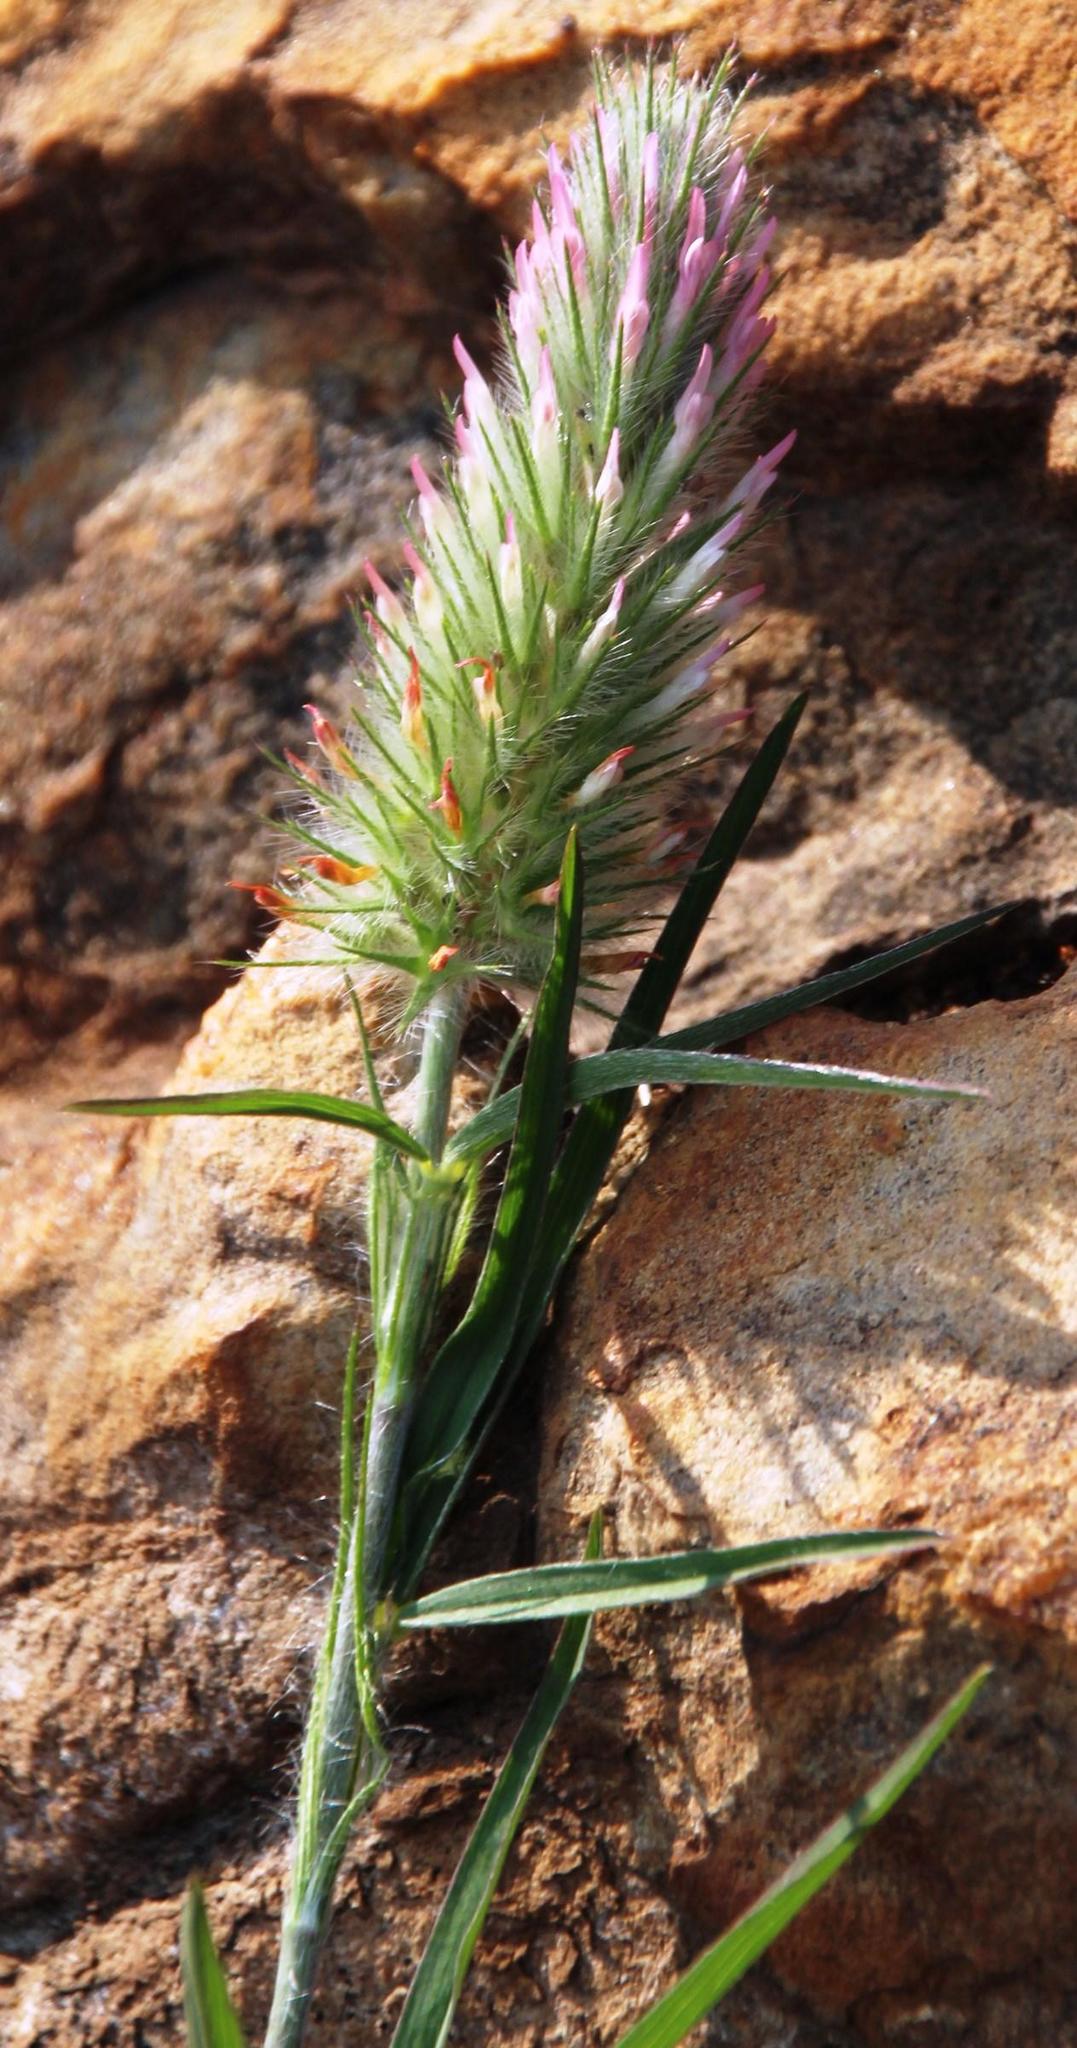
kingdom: Plantae
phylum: Tracheophyta
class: Magnoliopsida
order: Fabales
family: Fabaceae
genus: Trifolium
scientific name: Trifolium angustifolium
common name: Narrow clover
